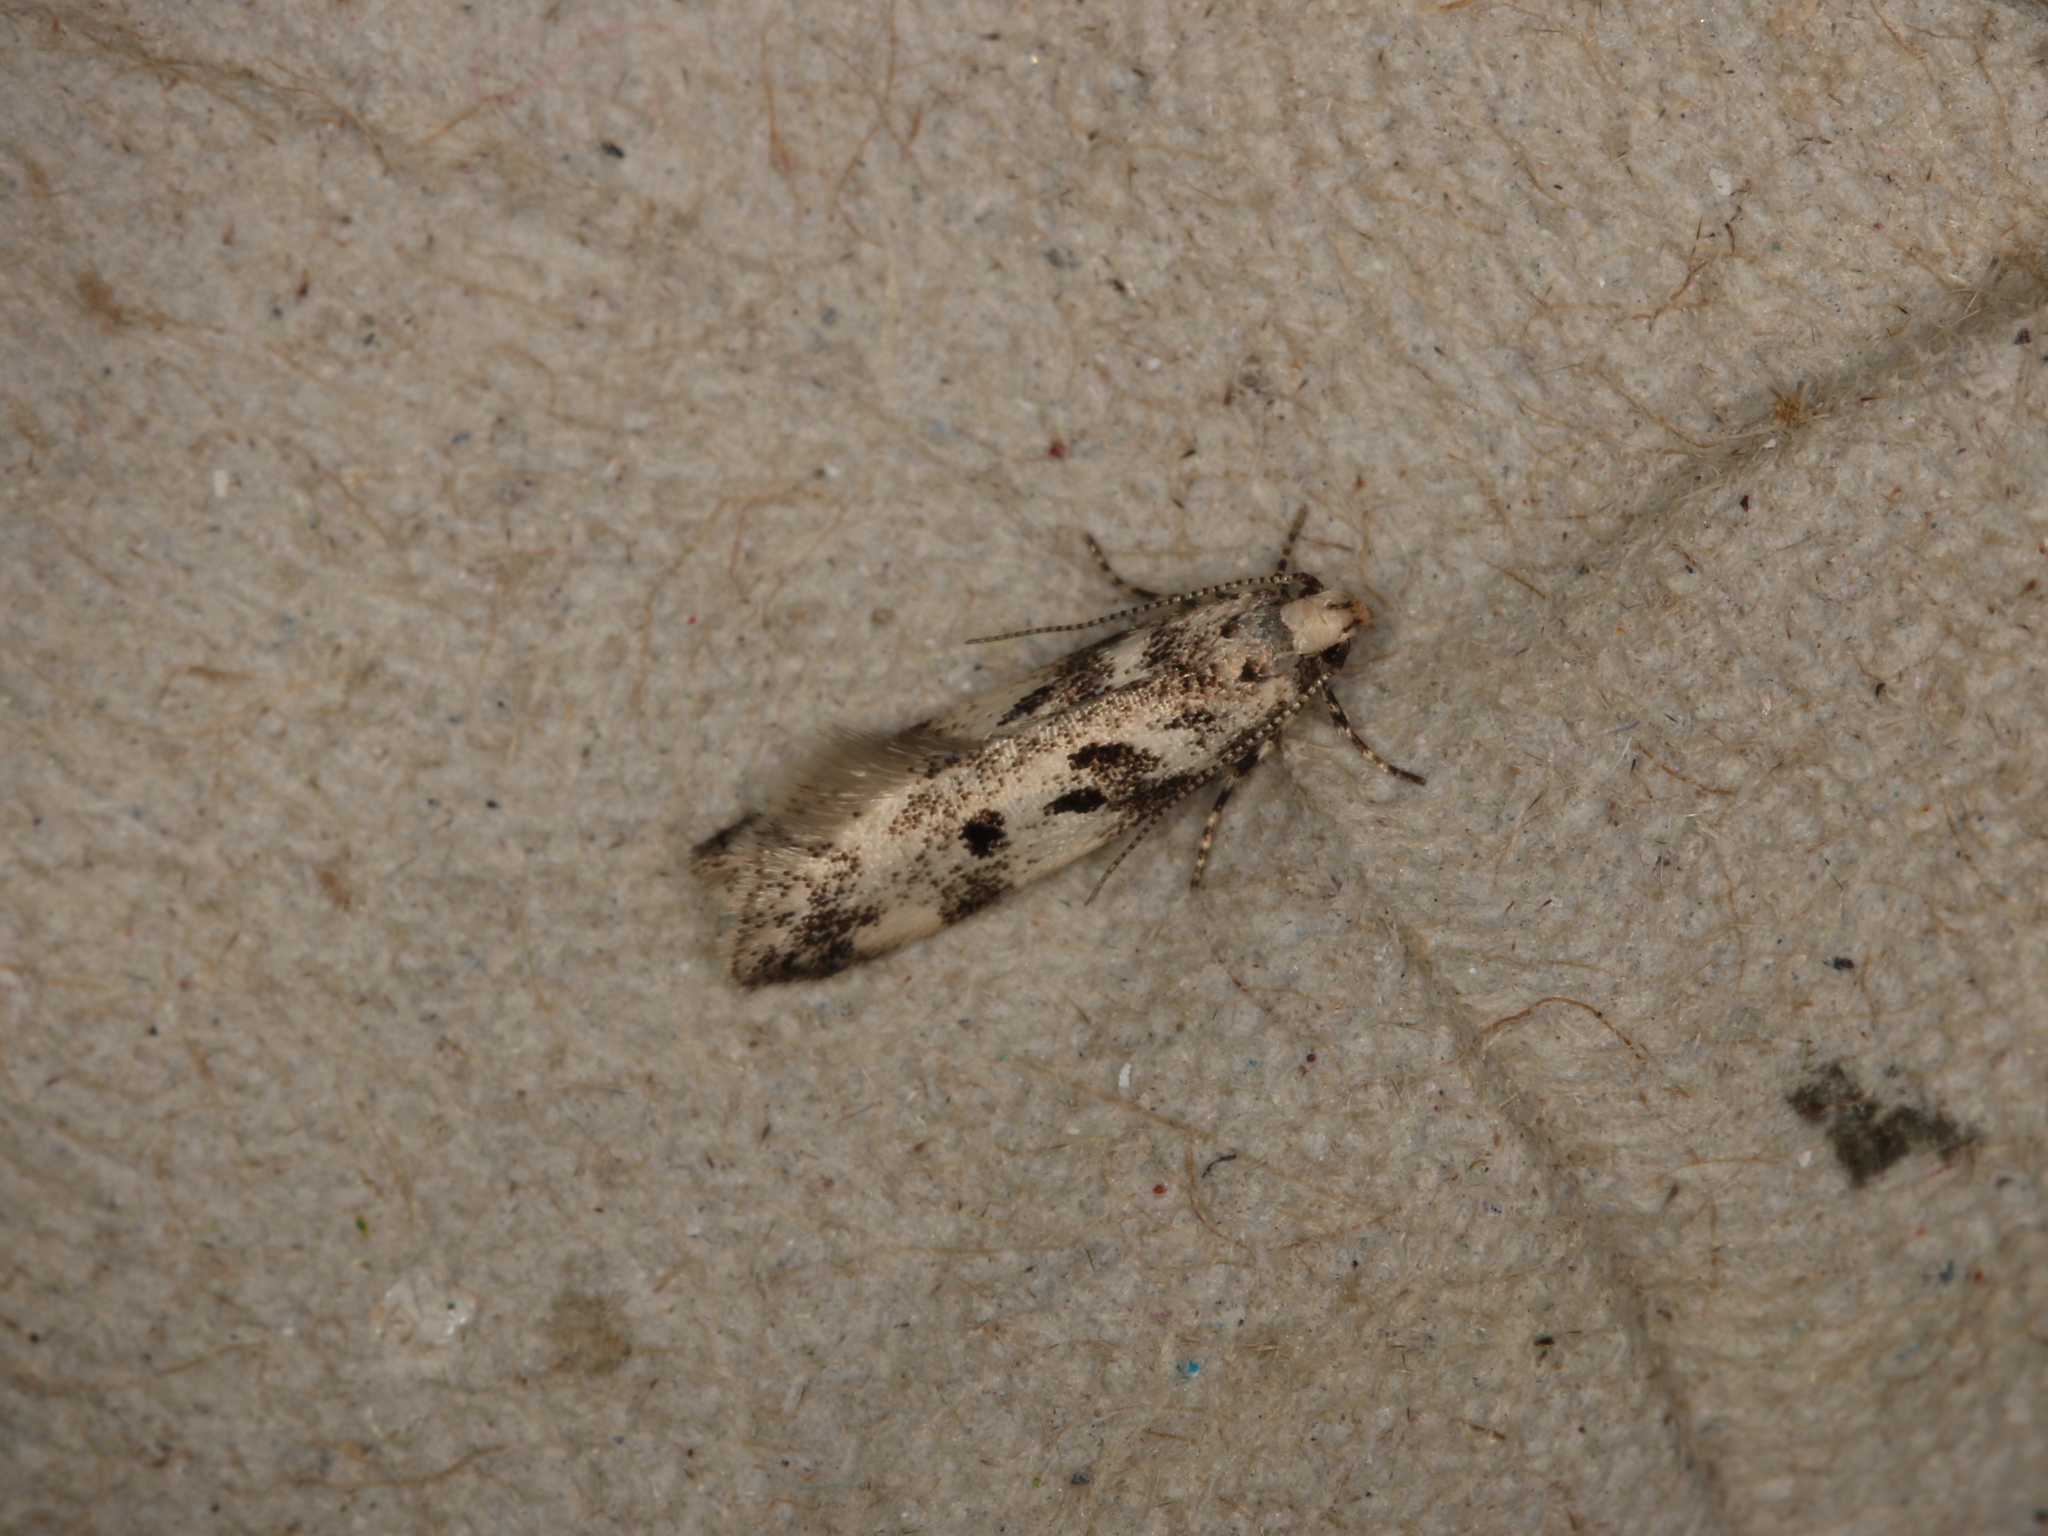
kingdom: Animalia
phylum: Arthropoda
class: Insecta
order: Lepidoptera
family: Gelechiidae
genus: Chionodes
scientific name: Chionodes electella
